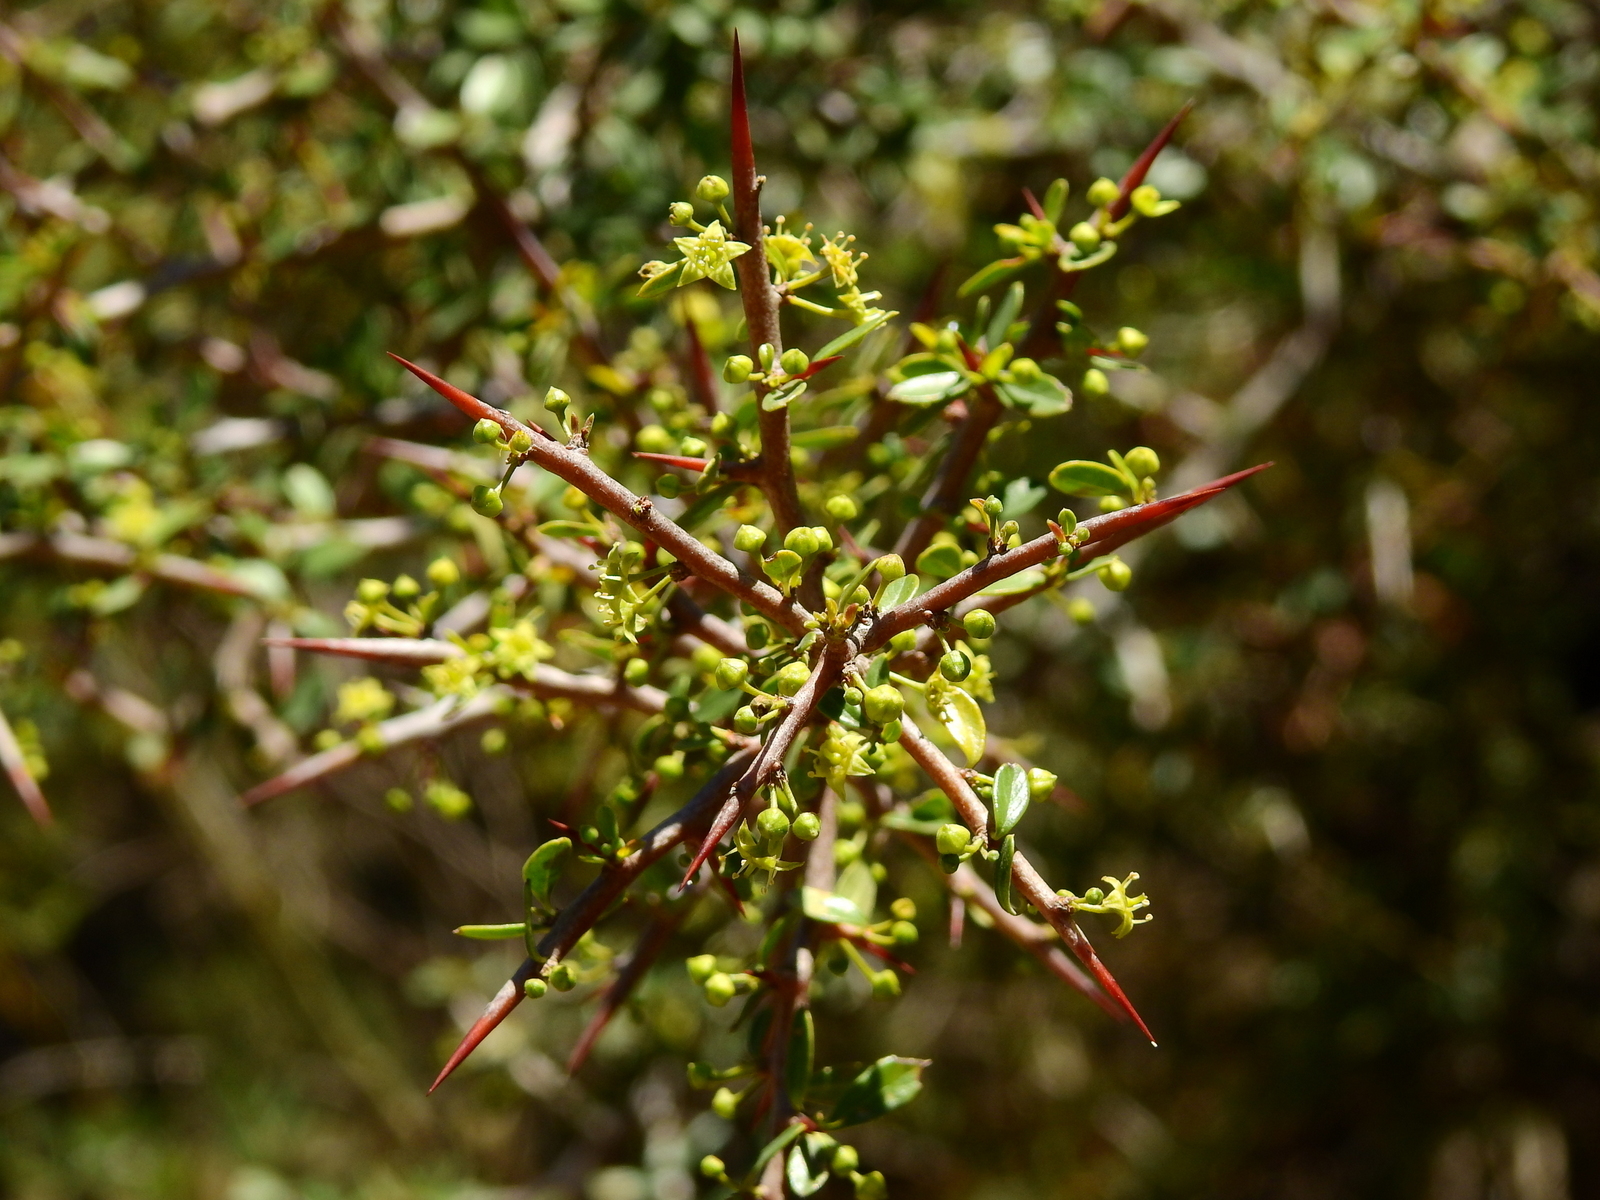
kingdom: Plantae
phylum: Tracheophyta
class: Magnoliopsida
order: Rosales
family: Rhamnaceae
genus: Condalia
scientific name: Condalia microphylla
